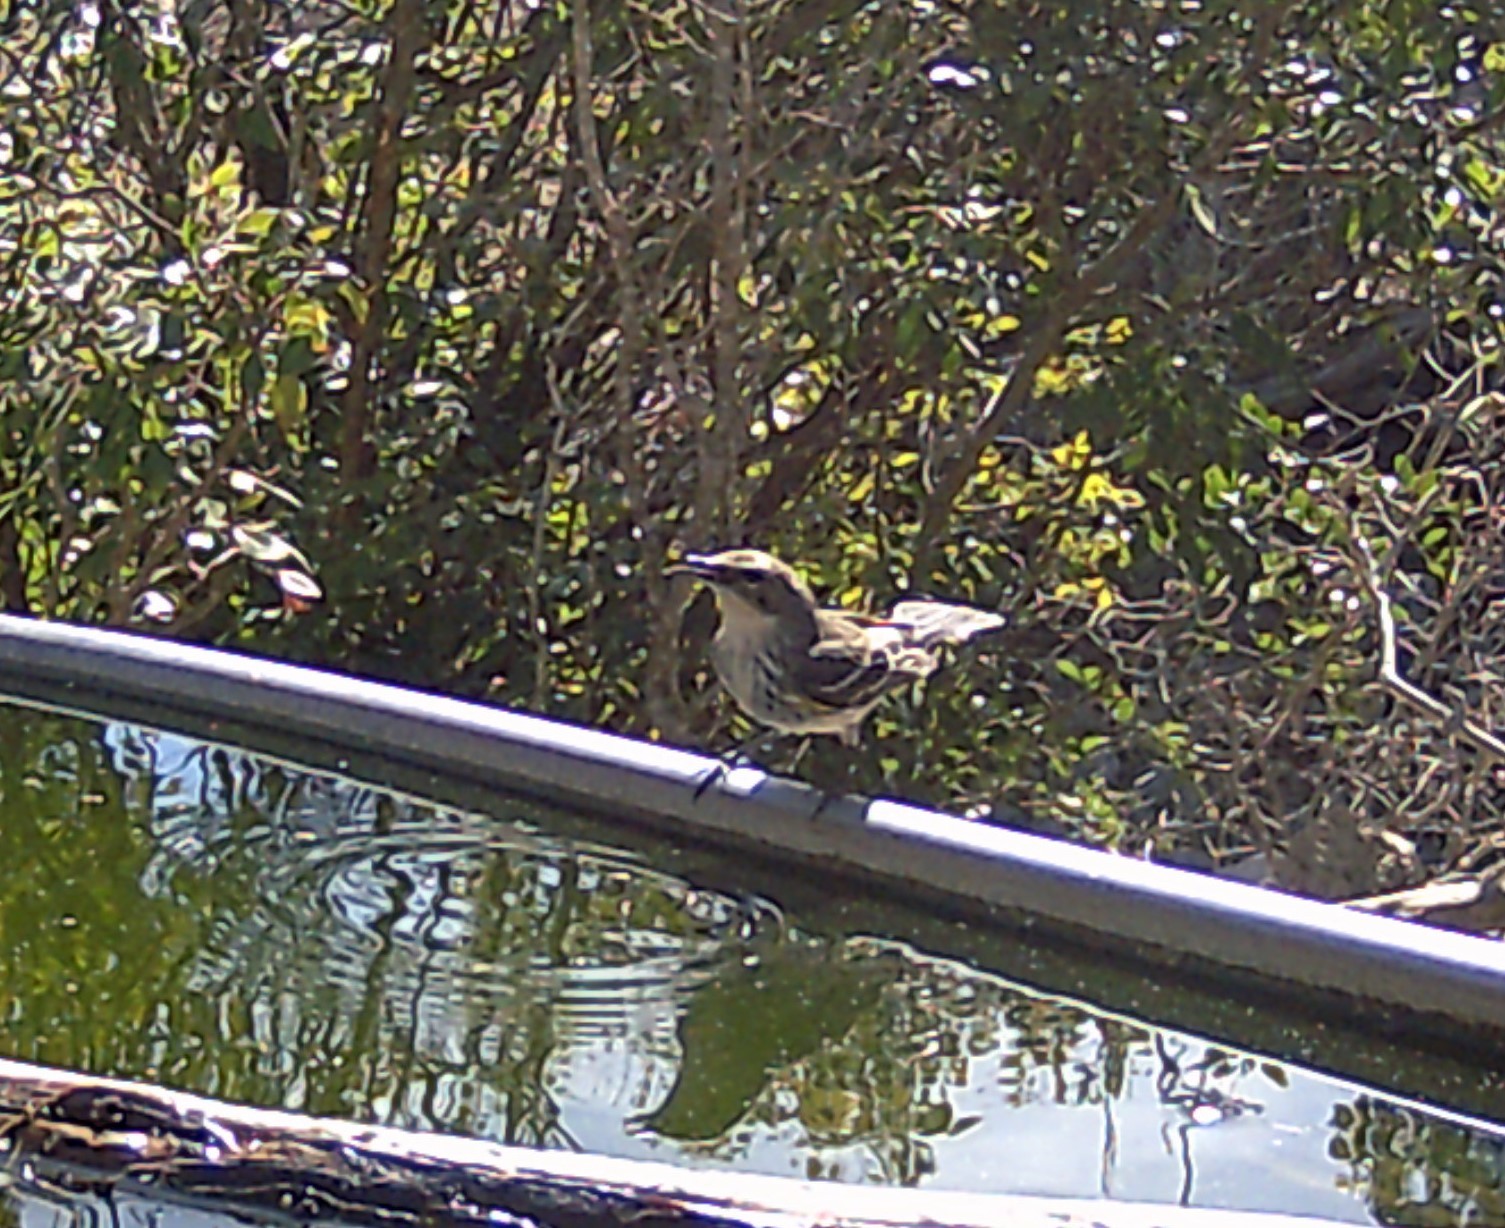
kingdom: Animalia
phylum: Chordata
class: Aves
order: Passeriformes
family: Parulidae
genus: Setophaga
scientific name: Setophaga coronata
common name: Myrtle warbler
